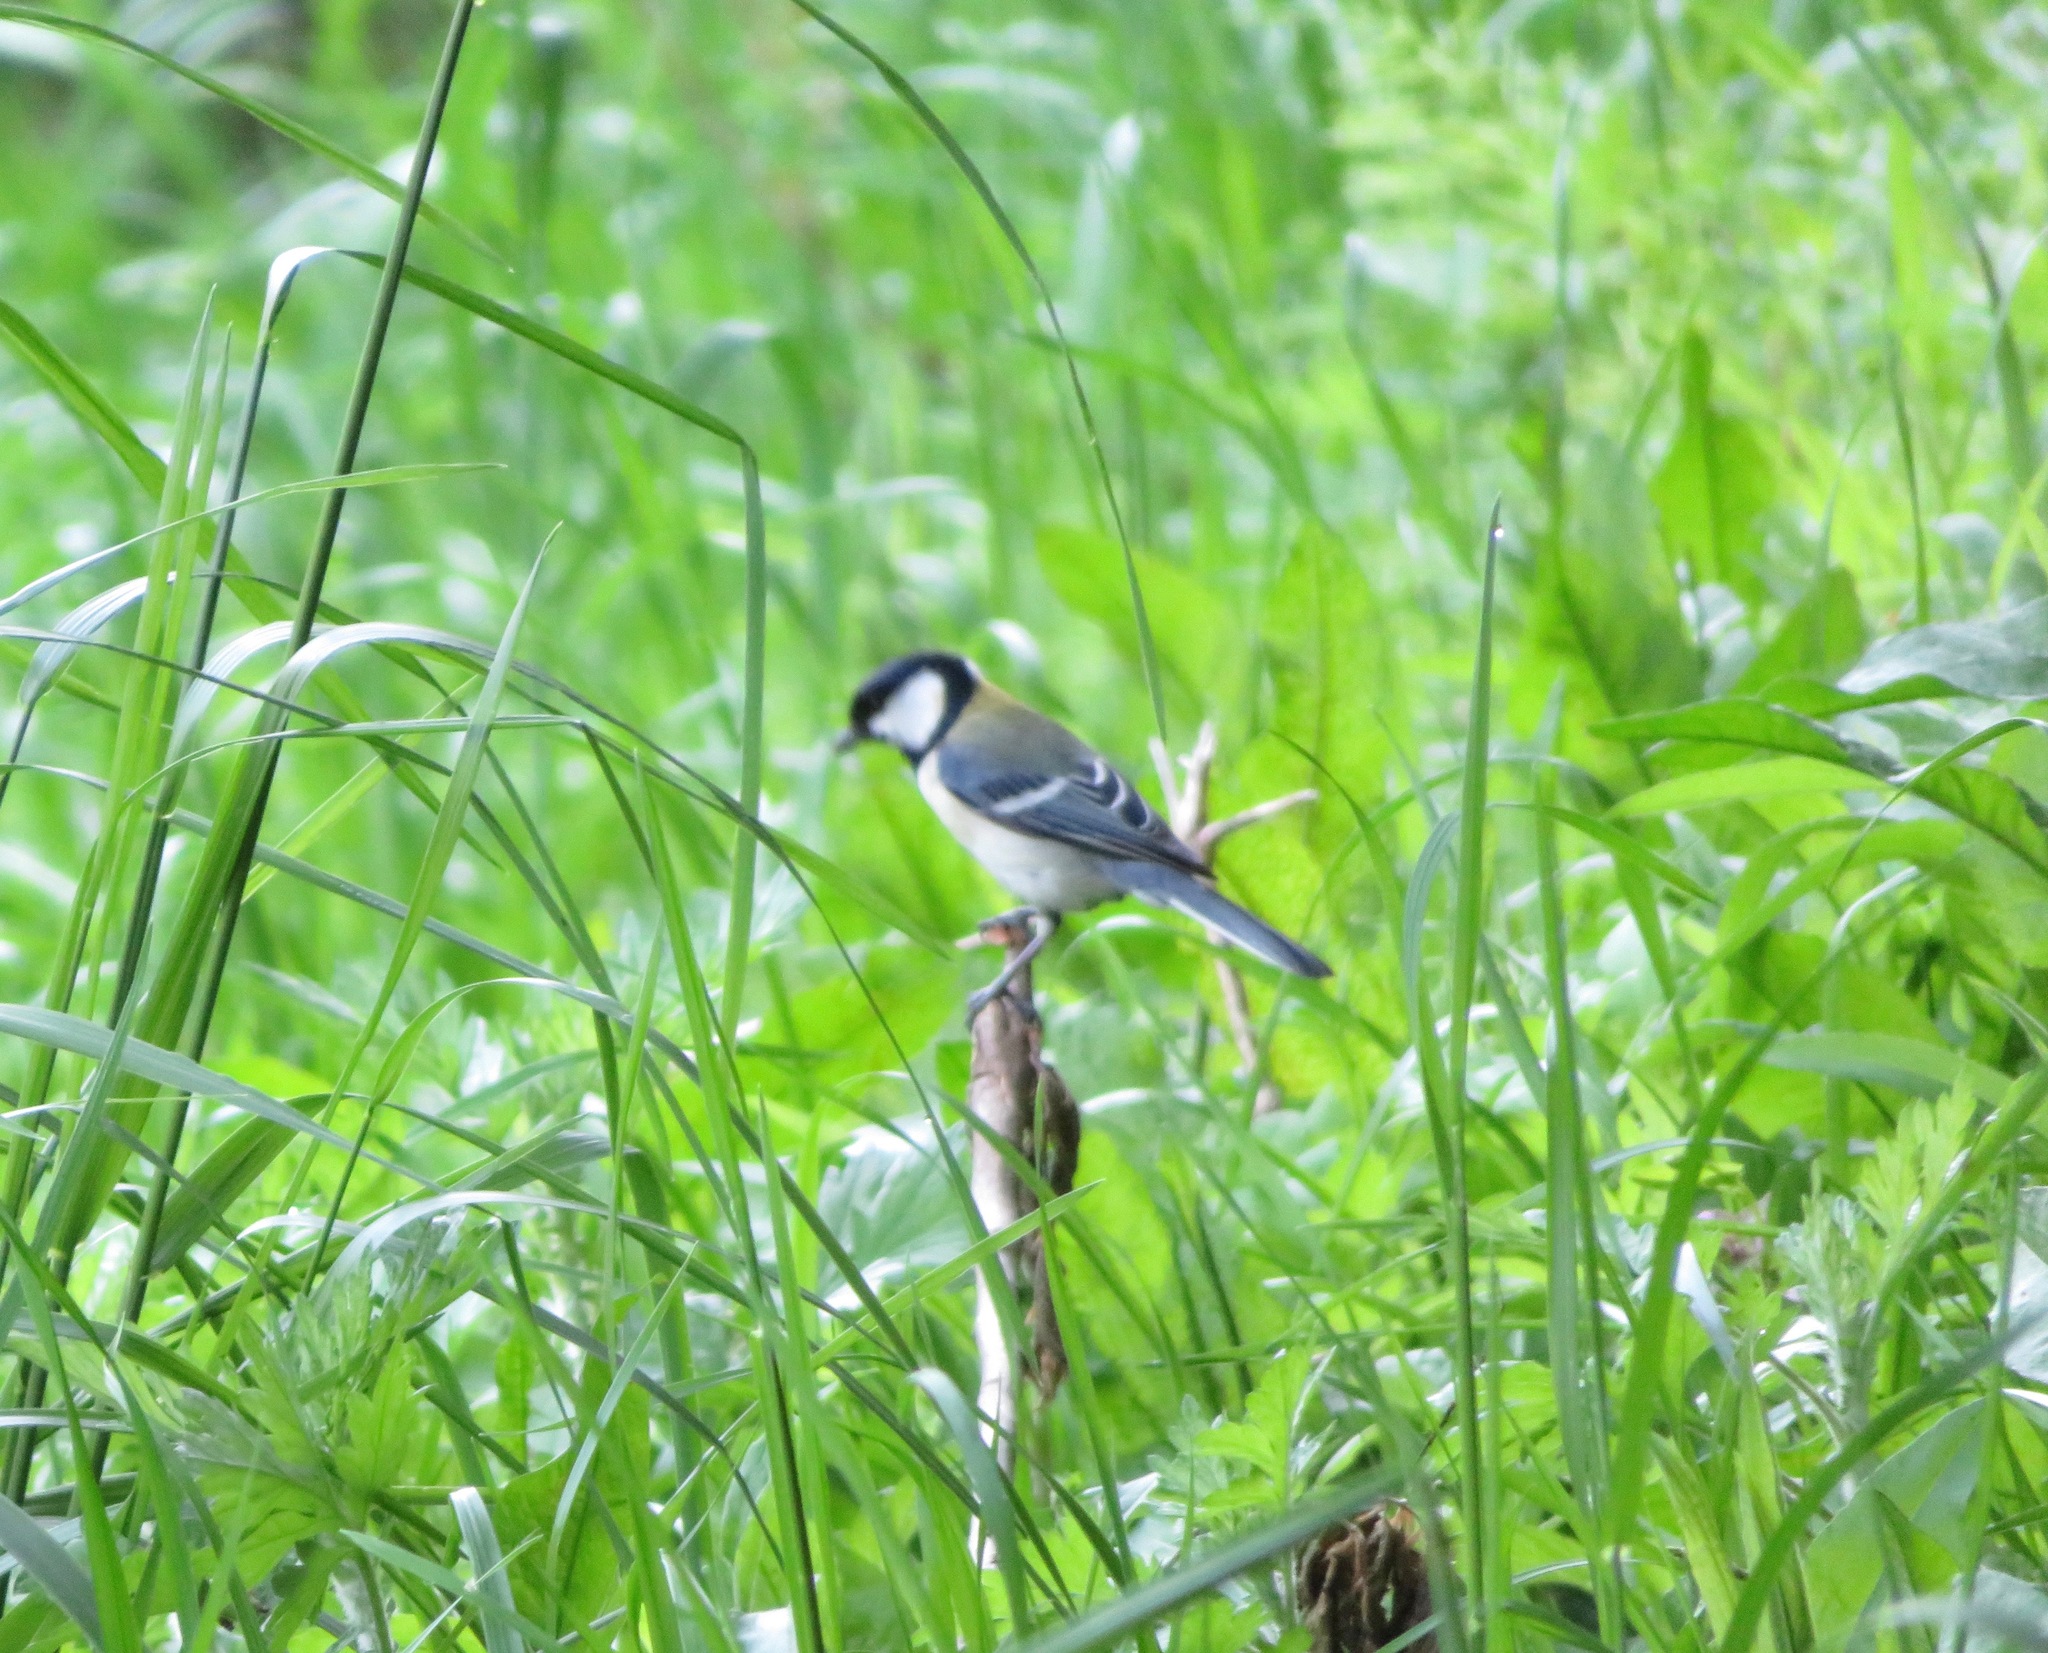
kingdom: Animalia
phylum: Chordata
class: Aves
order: Passeriformes
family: Paridae
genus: Parus
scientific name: Parus minor
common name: Japanese tit
